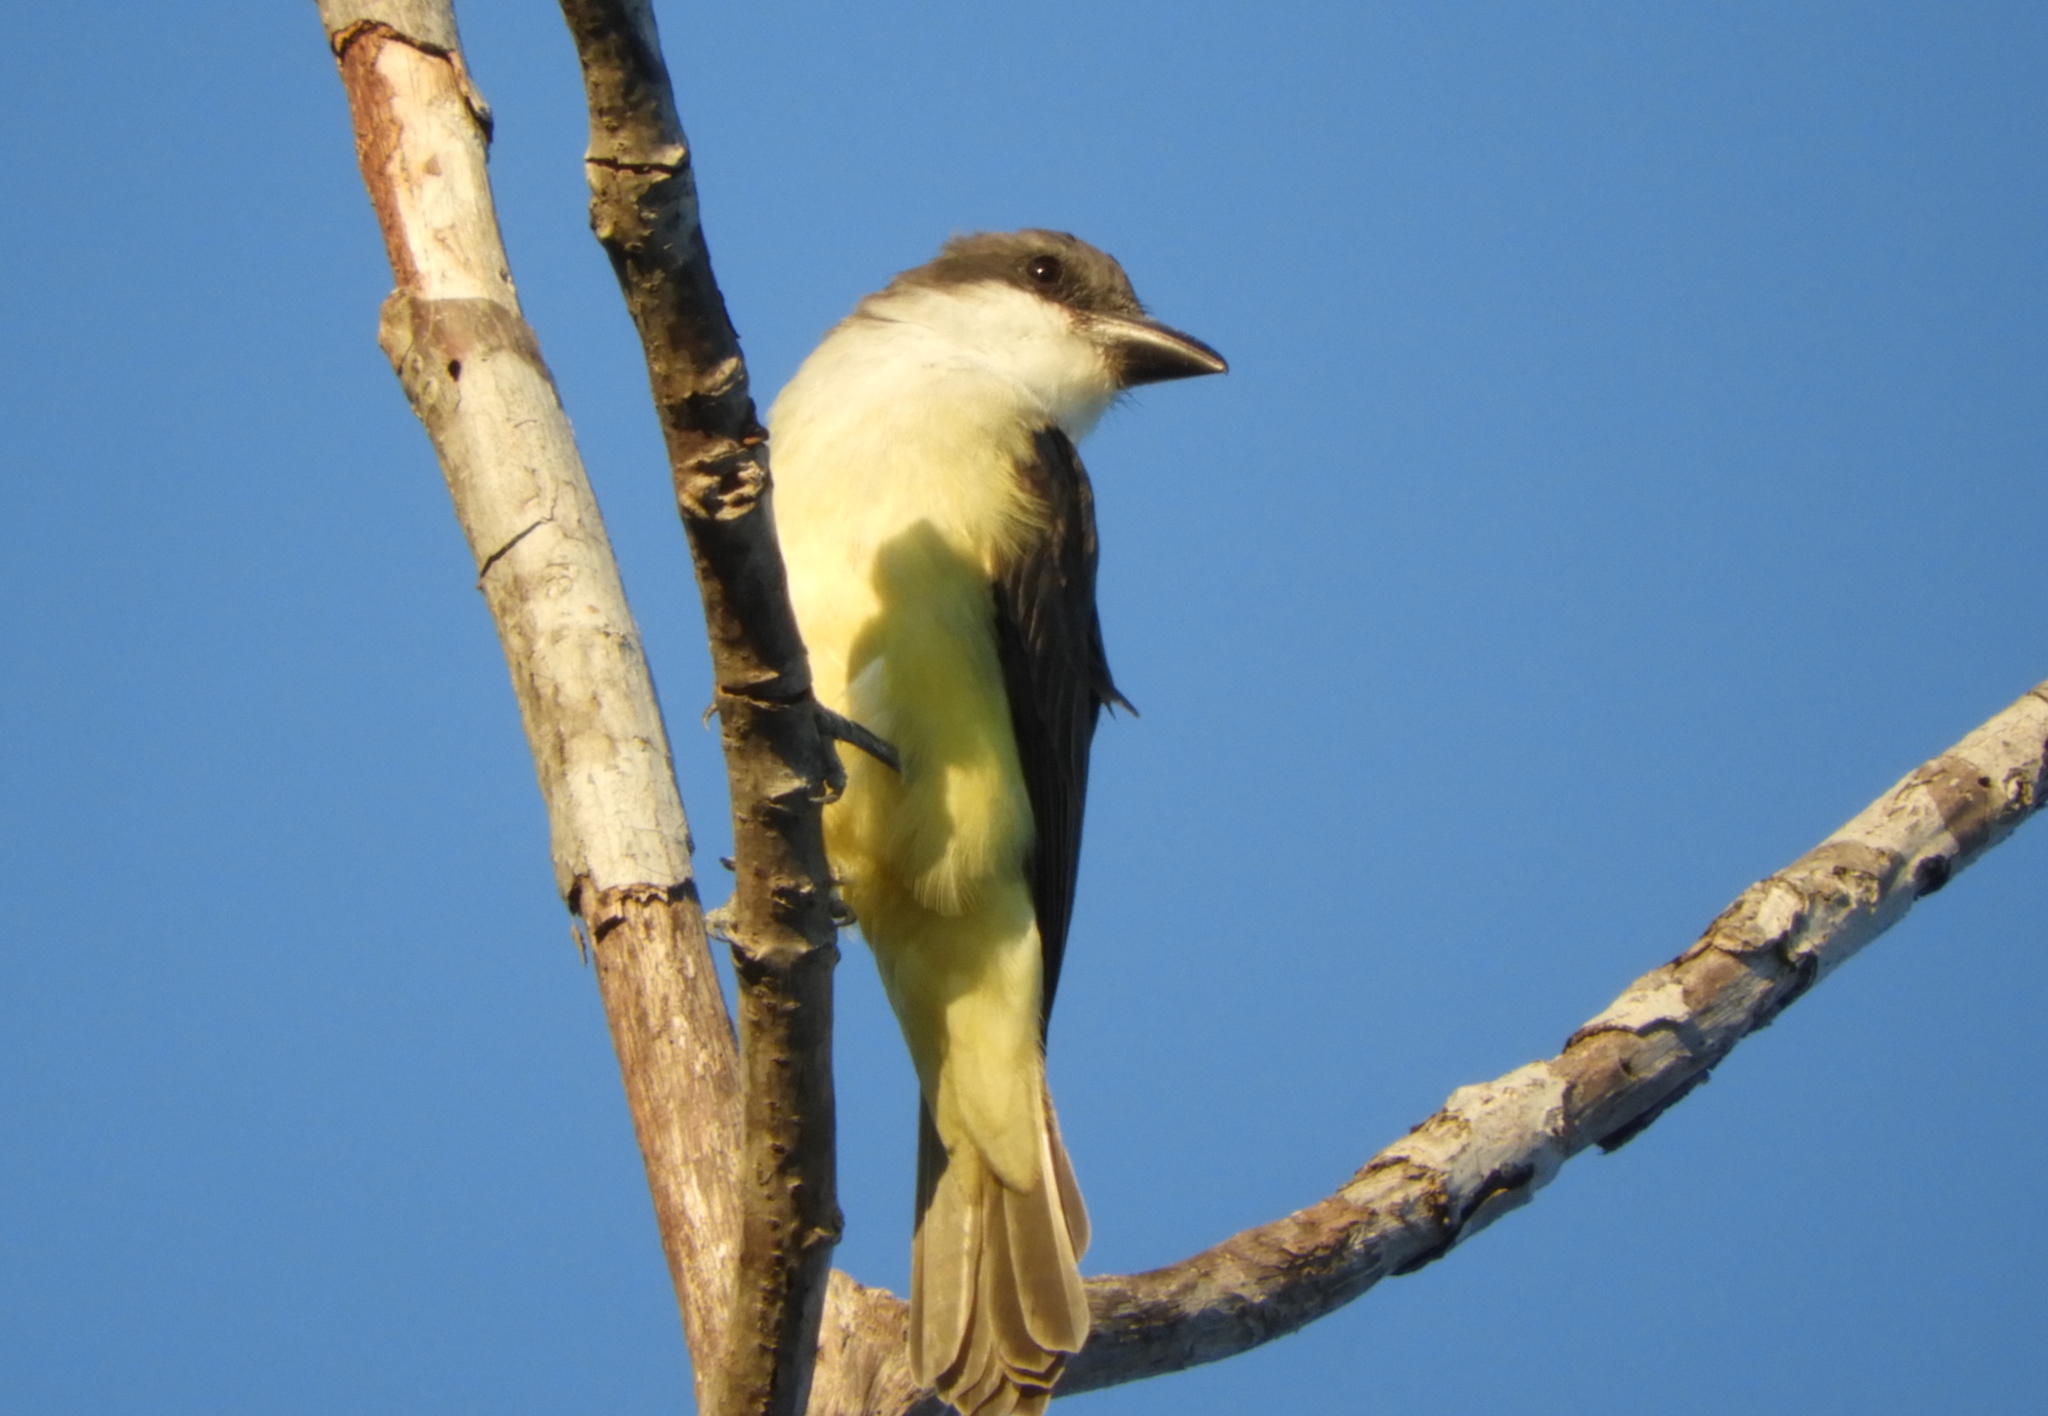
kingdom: Animalia
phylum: Chordata
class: Aves
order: Passeriformes
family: Tyrannidae
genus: Tyrannus
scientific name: Tyrannus crassirostris
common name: Thick-billed kingbird
